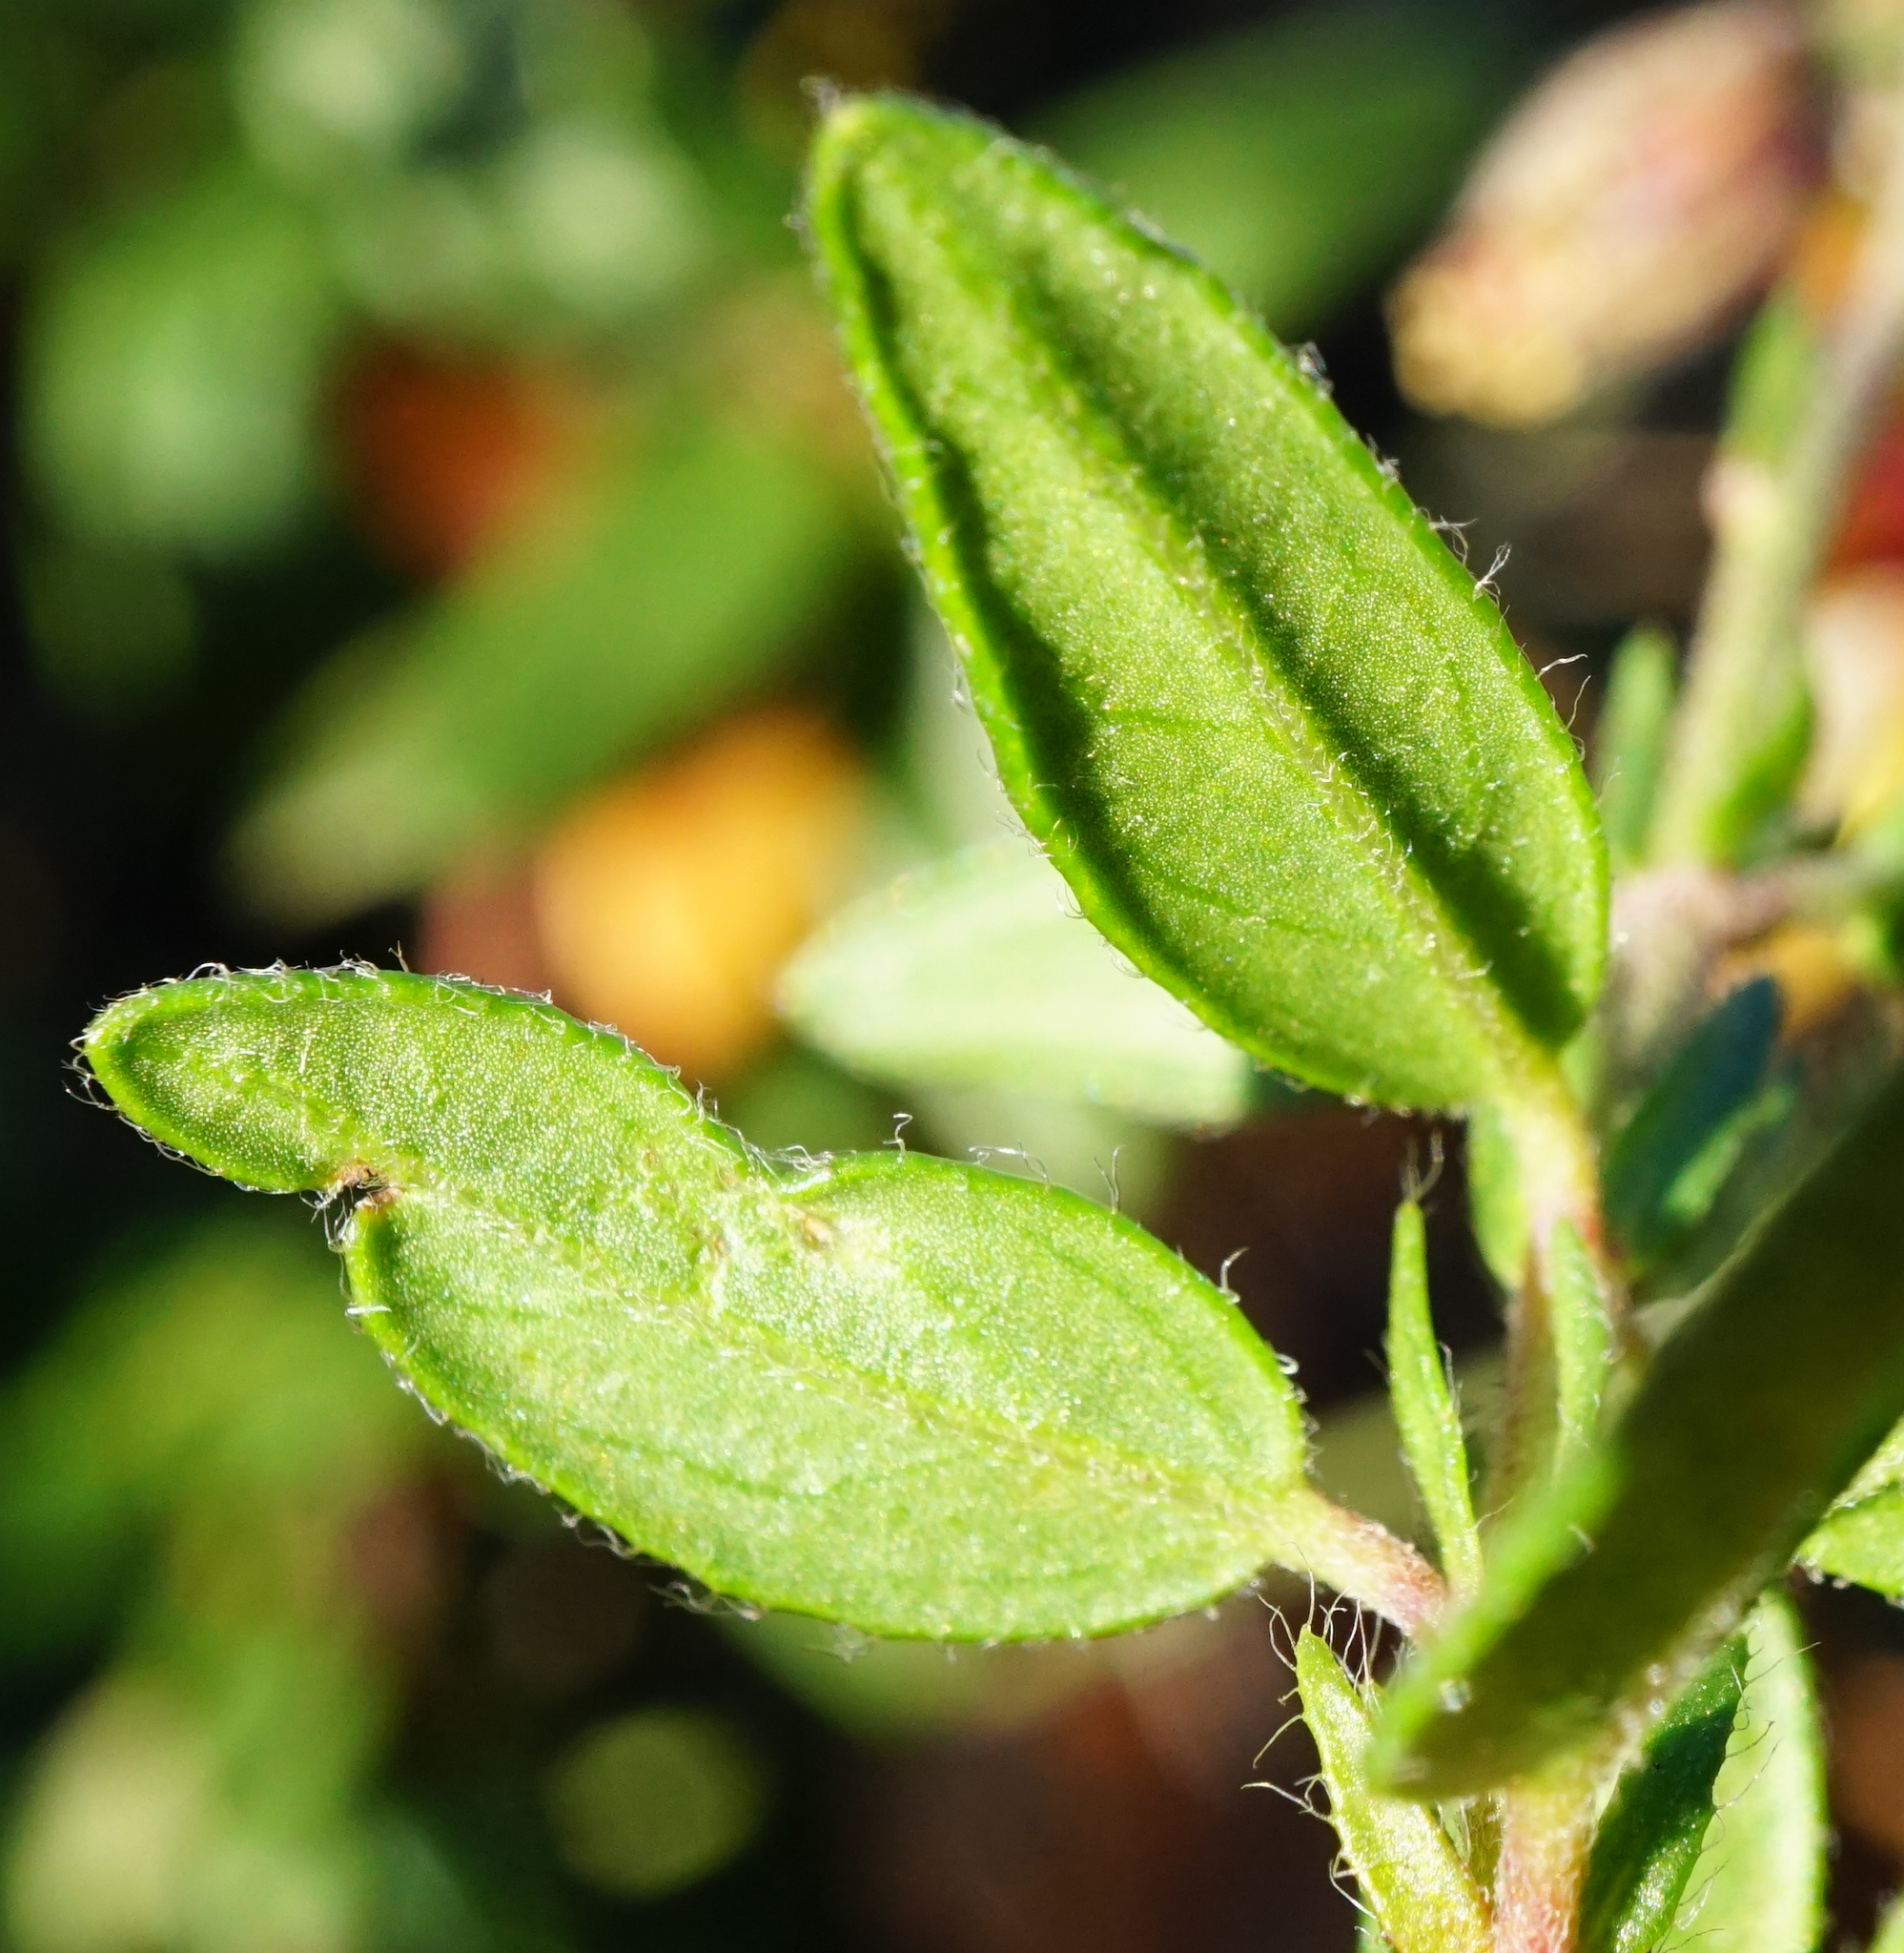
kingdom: Plantae
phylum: Tracheophyta
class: Magnoliopsida
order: Malvales
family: Cistaceae
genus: Helianthemum
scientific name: Helianthemum nummularium
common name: Common rock-rose
